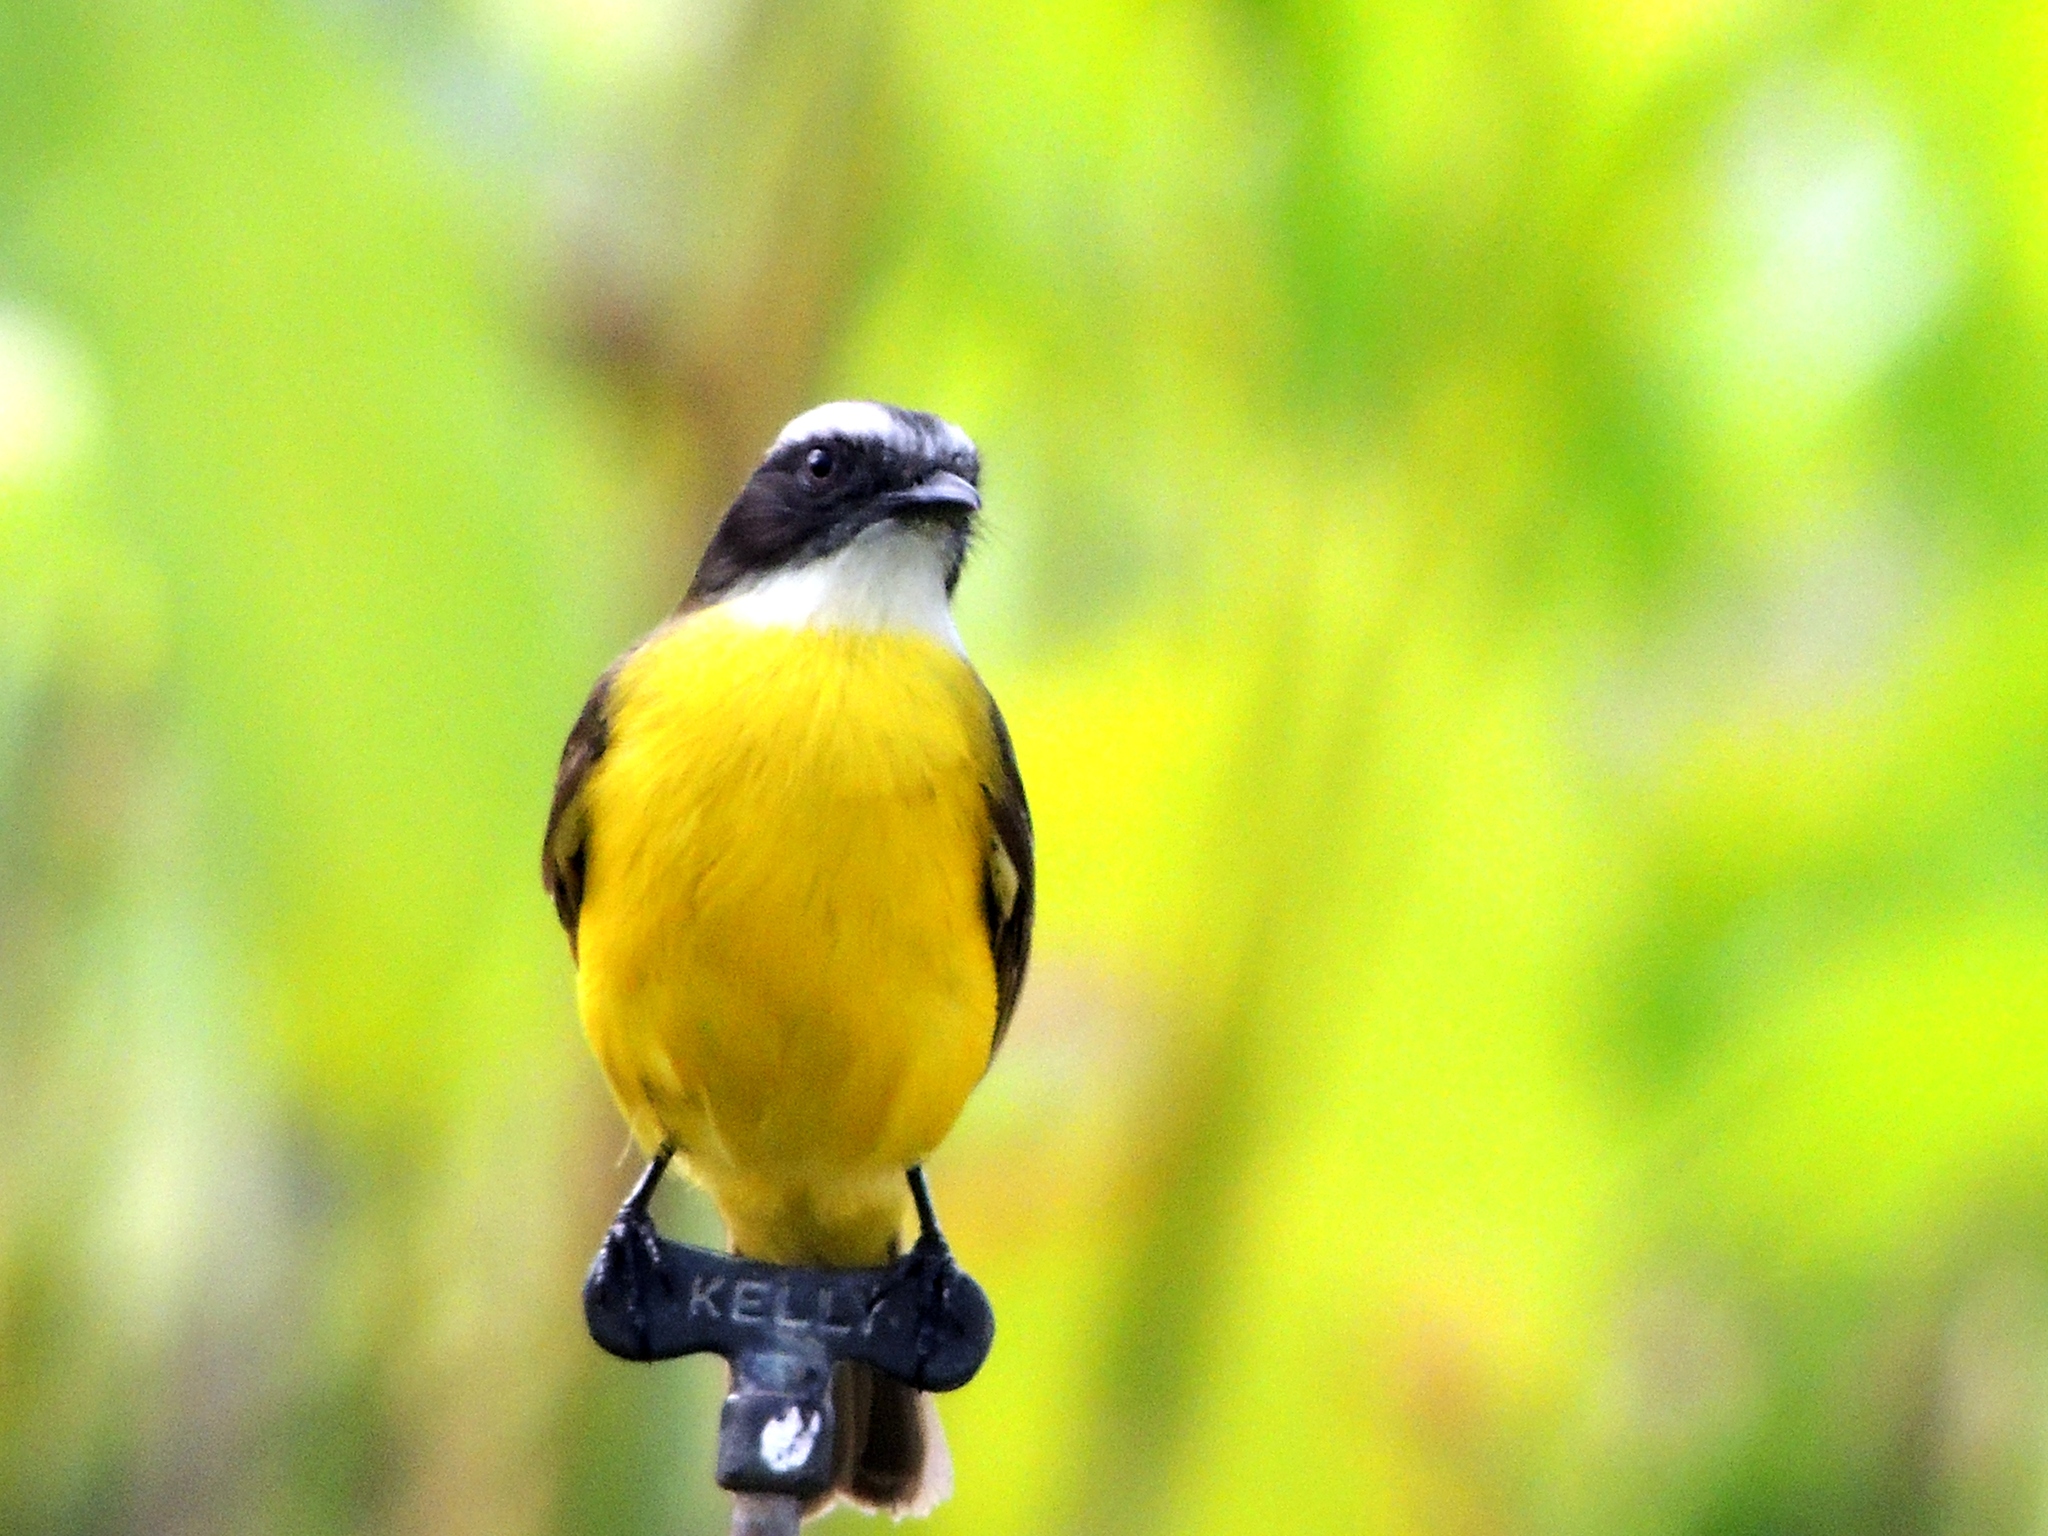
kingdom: Animalia
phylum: Chordata
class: Aves
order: Passeriformes
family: Tyrannidae
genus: Myiozetetes
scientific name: Myiozetetes similis
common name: Social flycatcher
